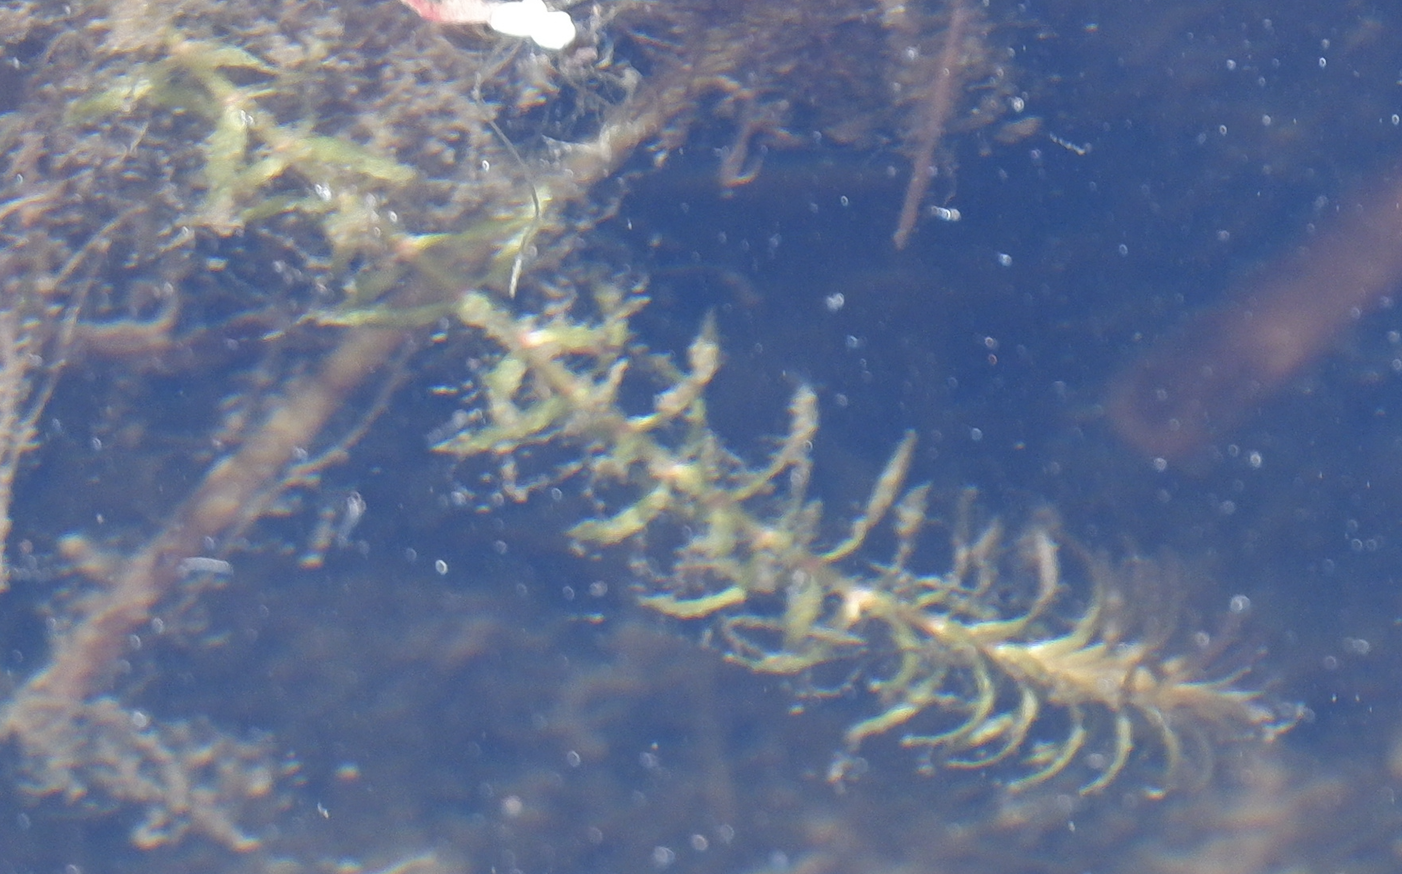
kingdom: Plantae
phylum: Tracheophyta
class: Liliopsida
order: Alismatales
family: Hydrocharitaceae
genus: Elodea
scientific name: Elodea canadensis
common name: Canadian waterweed
